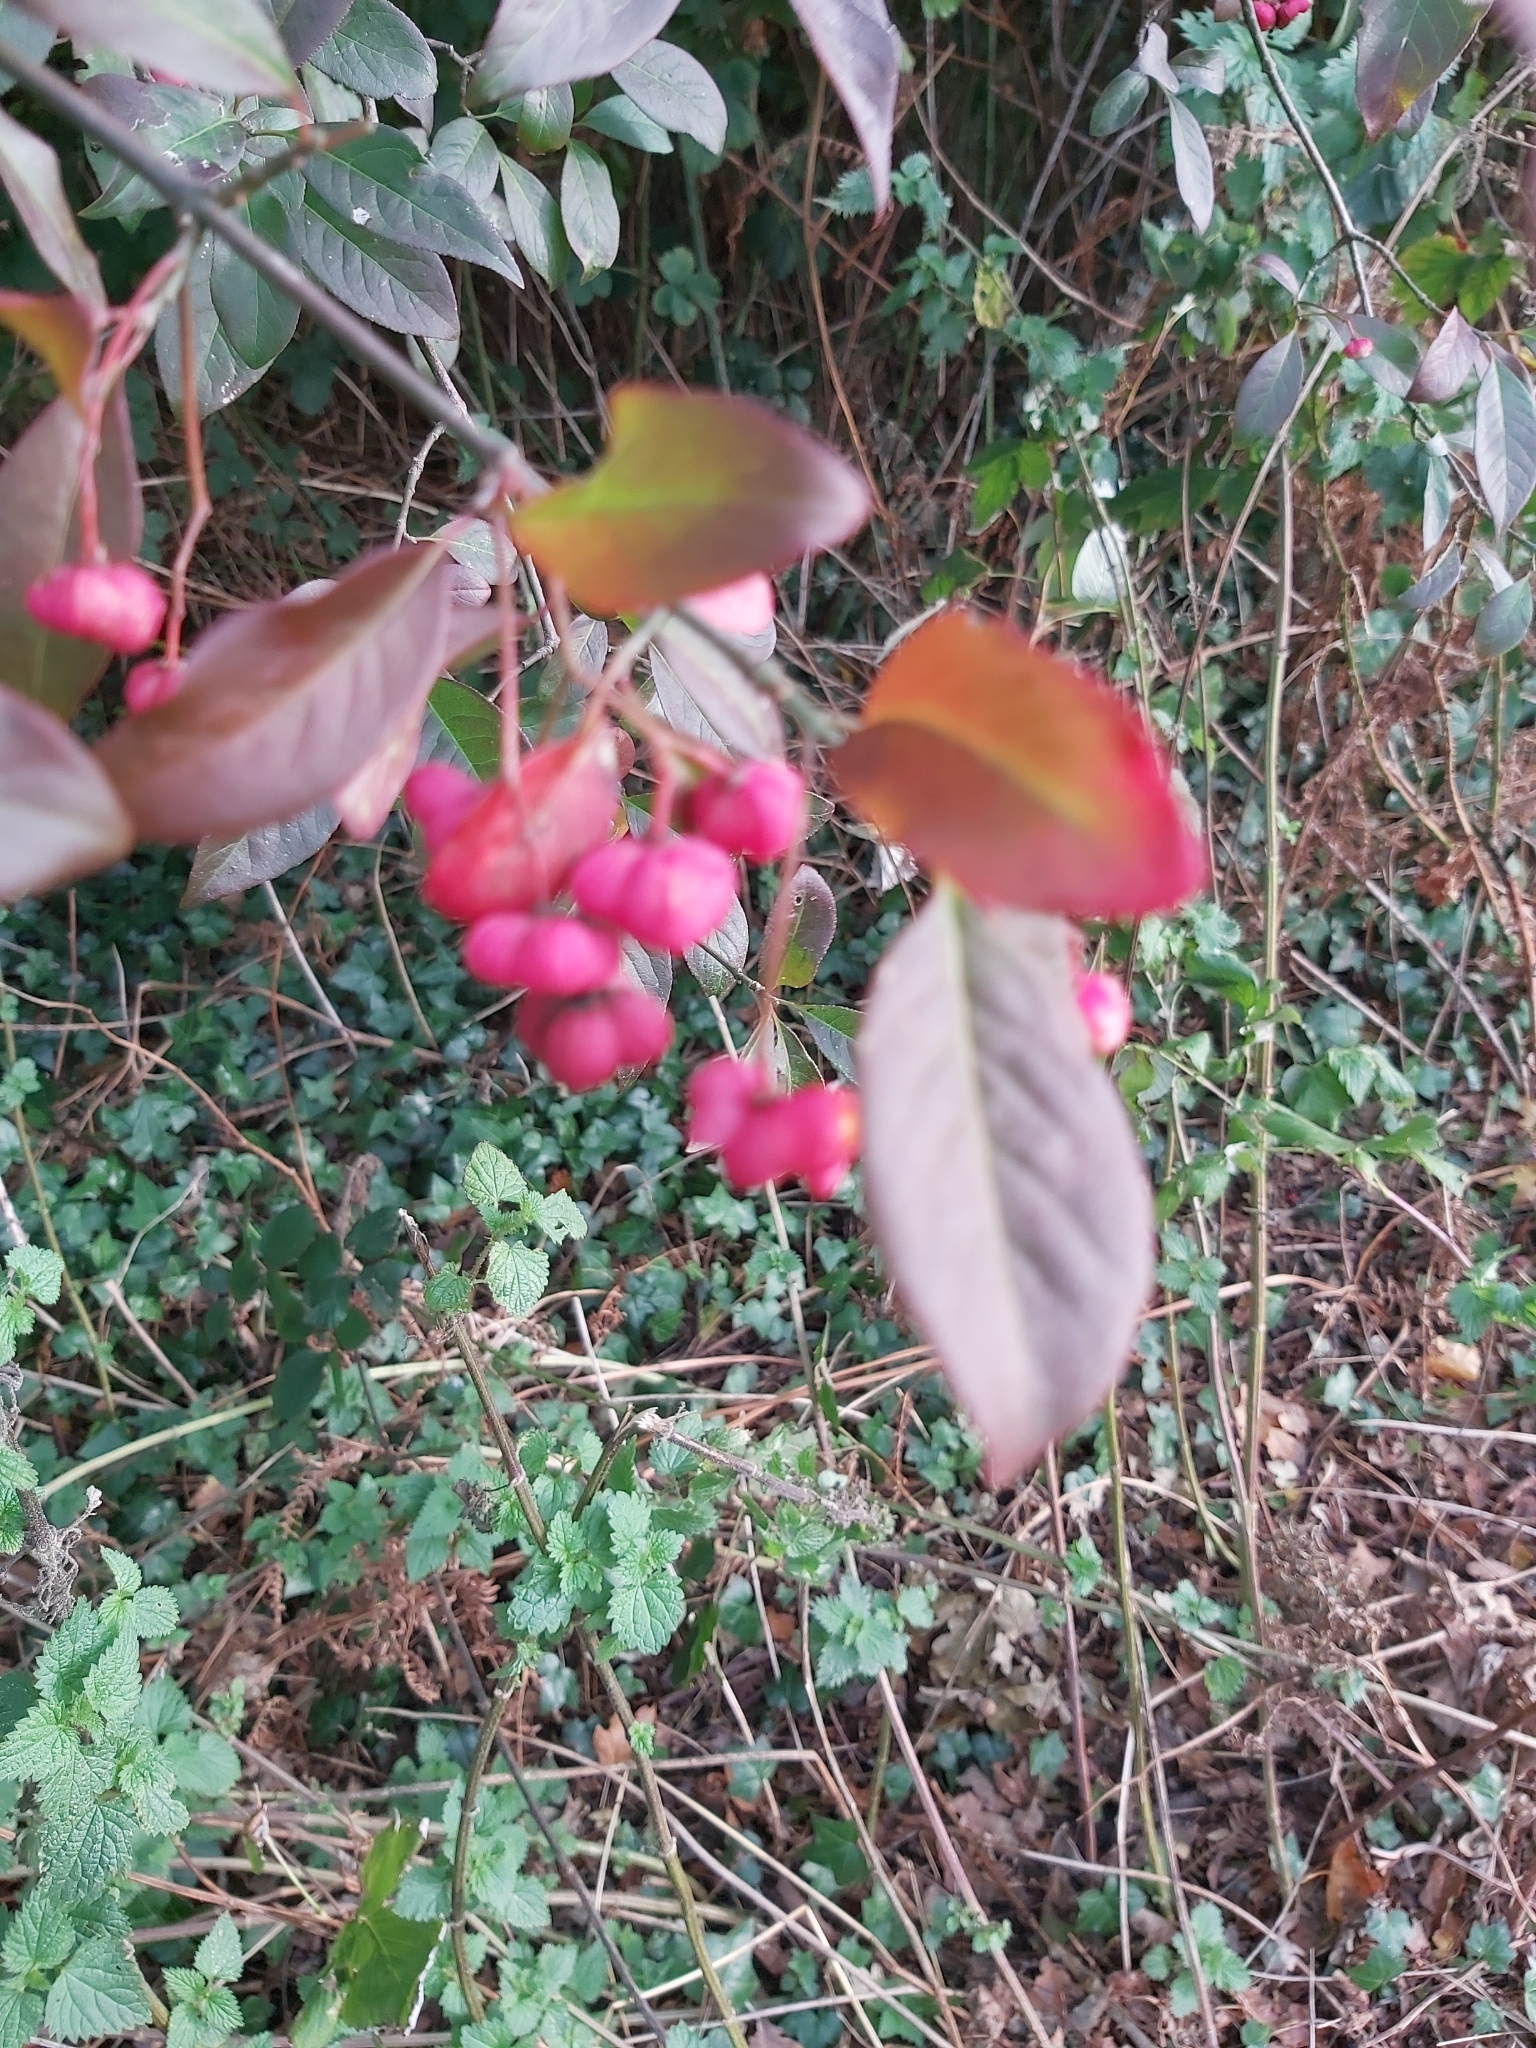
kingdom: Plantae
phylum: Tracheophyta
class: Magnoliopsida
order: Celastrales
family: Celastraceae
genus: Euonymus
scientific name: Euonymus europaeus
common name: Spindle
